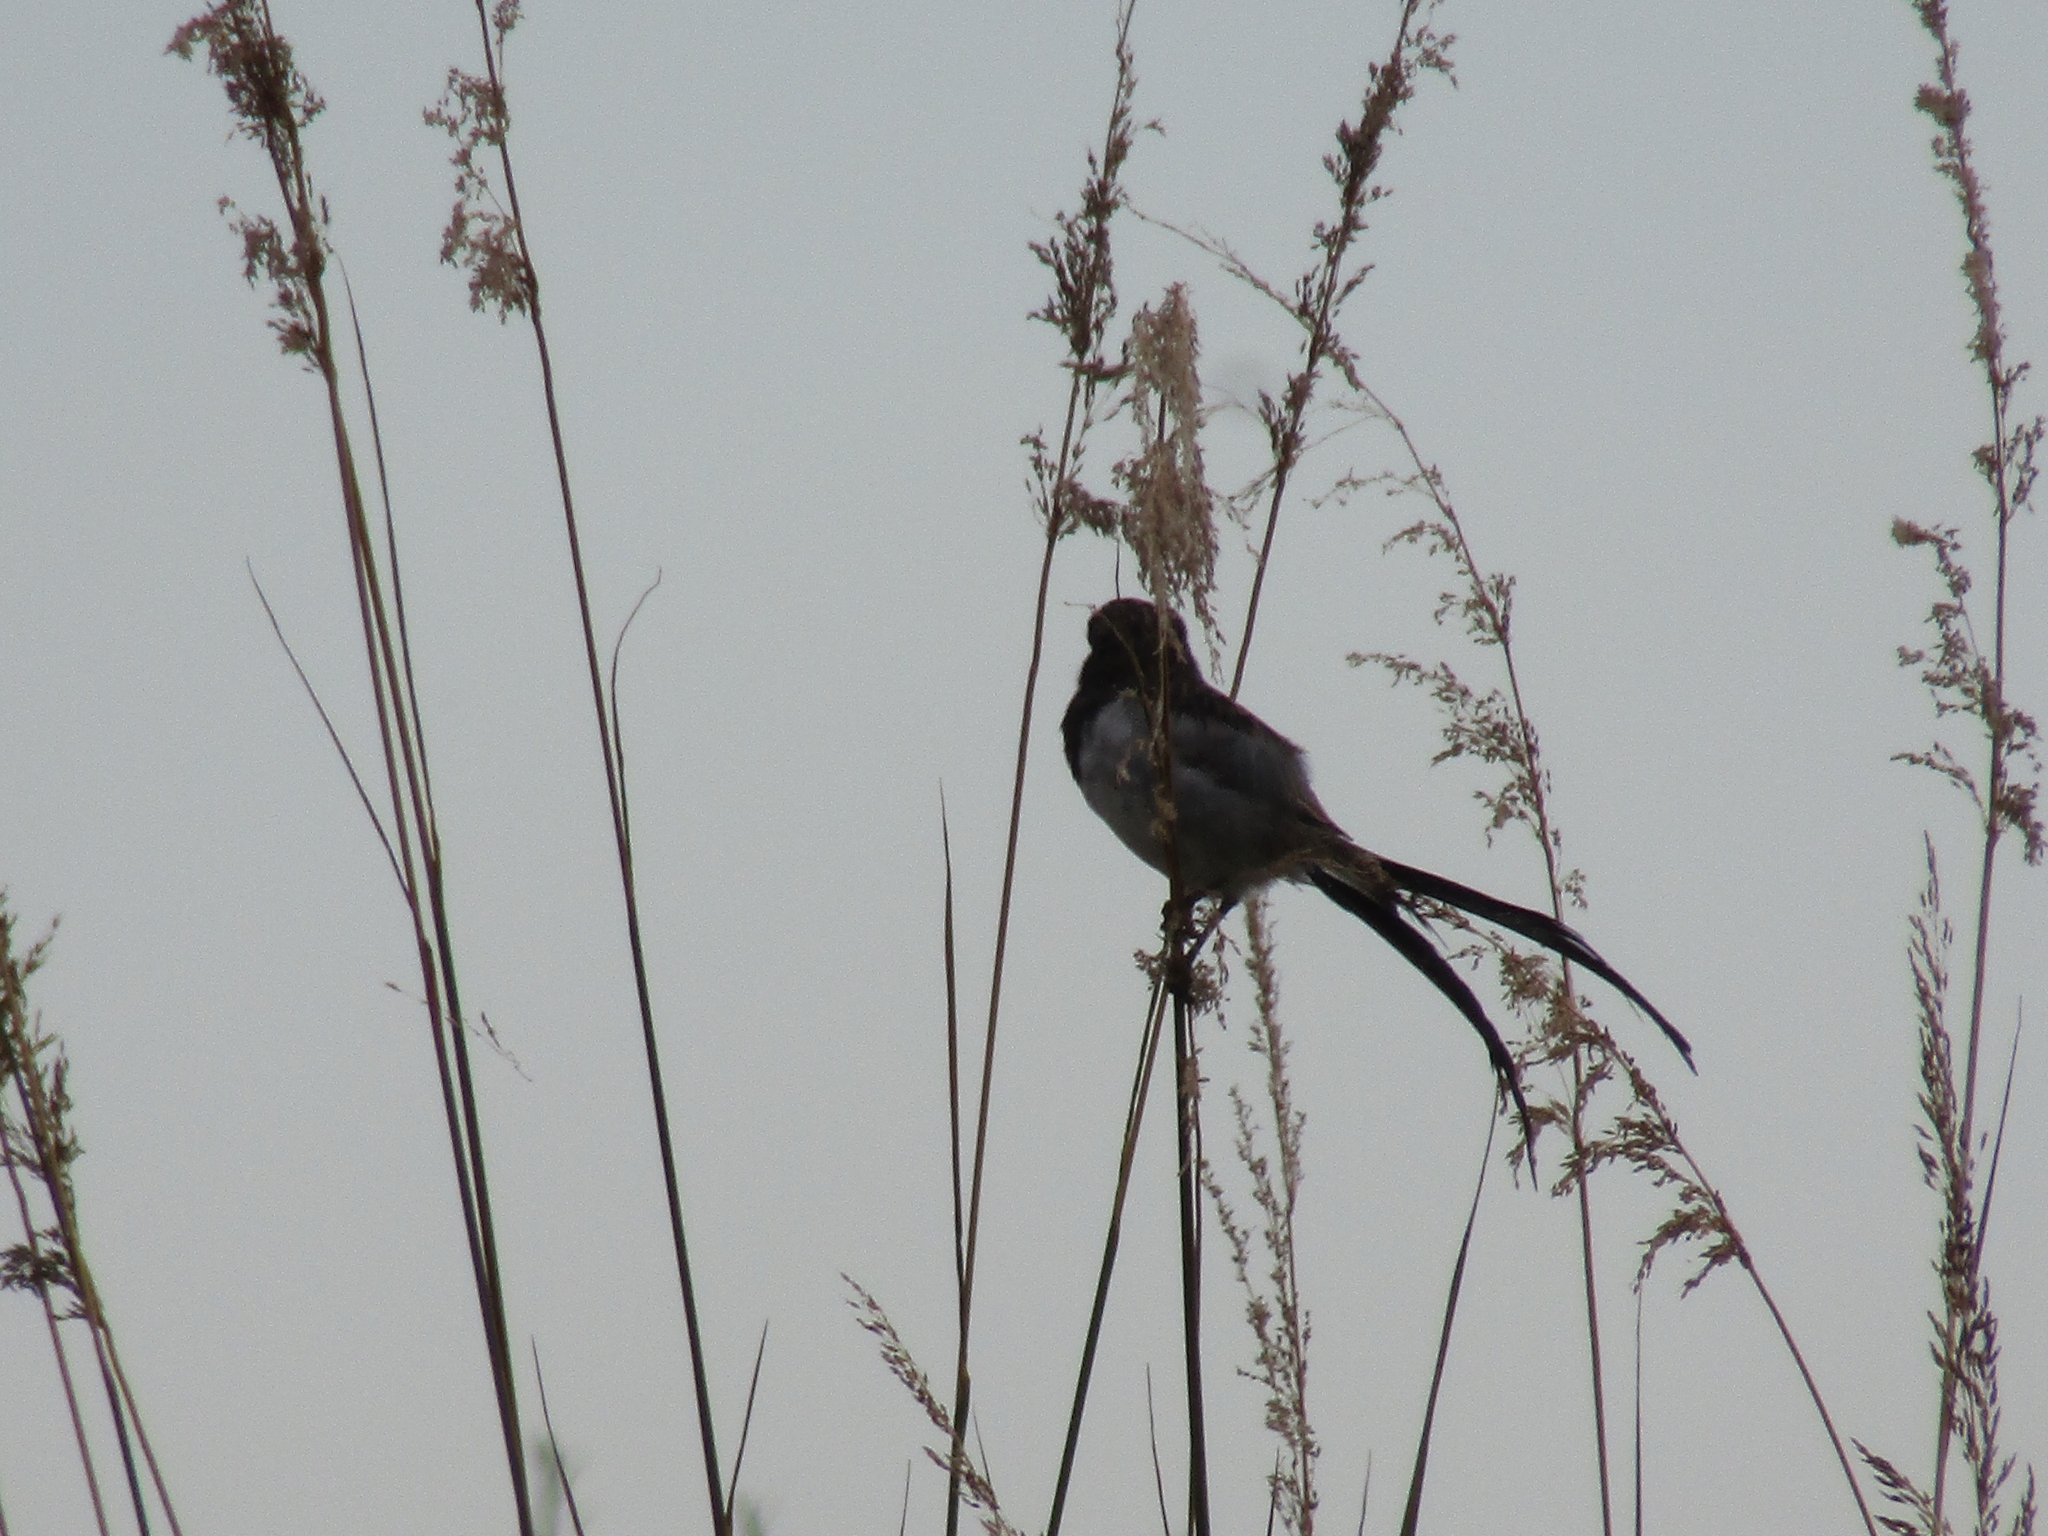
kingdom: Animalia
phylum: Chordata
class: Aves
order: Passeriformes
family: Tyrannidae
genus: Alectrurus
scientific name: Alectrurus risora
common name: Strange-tailed tyrant
